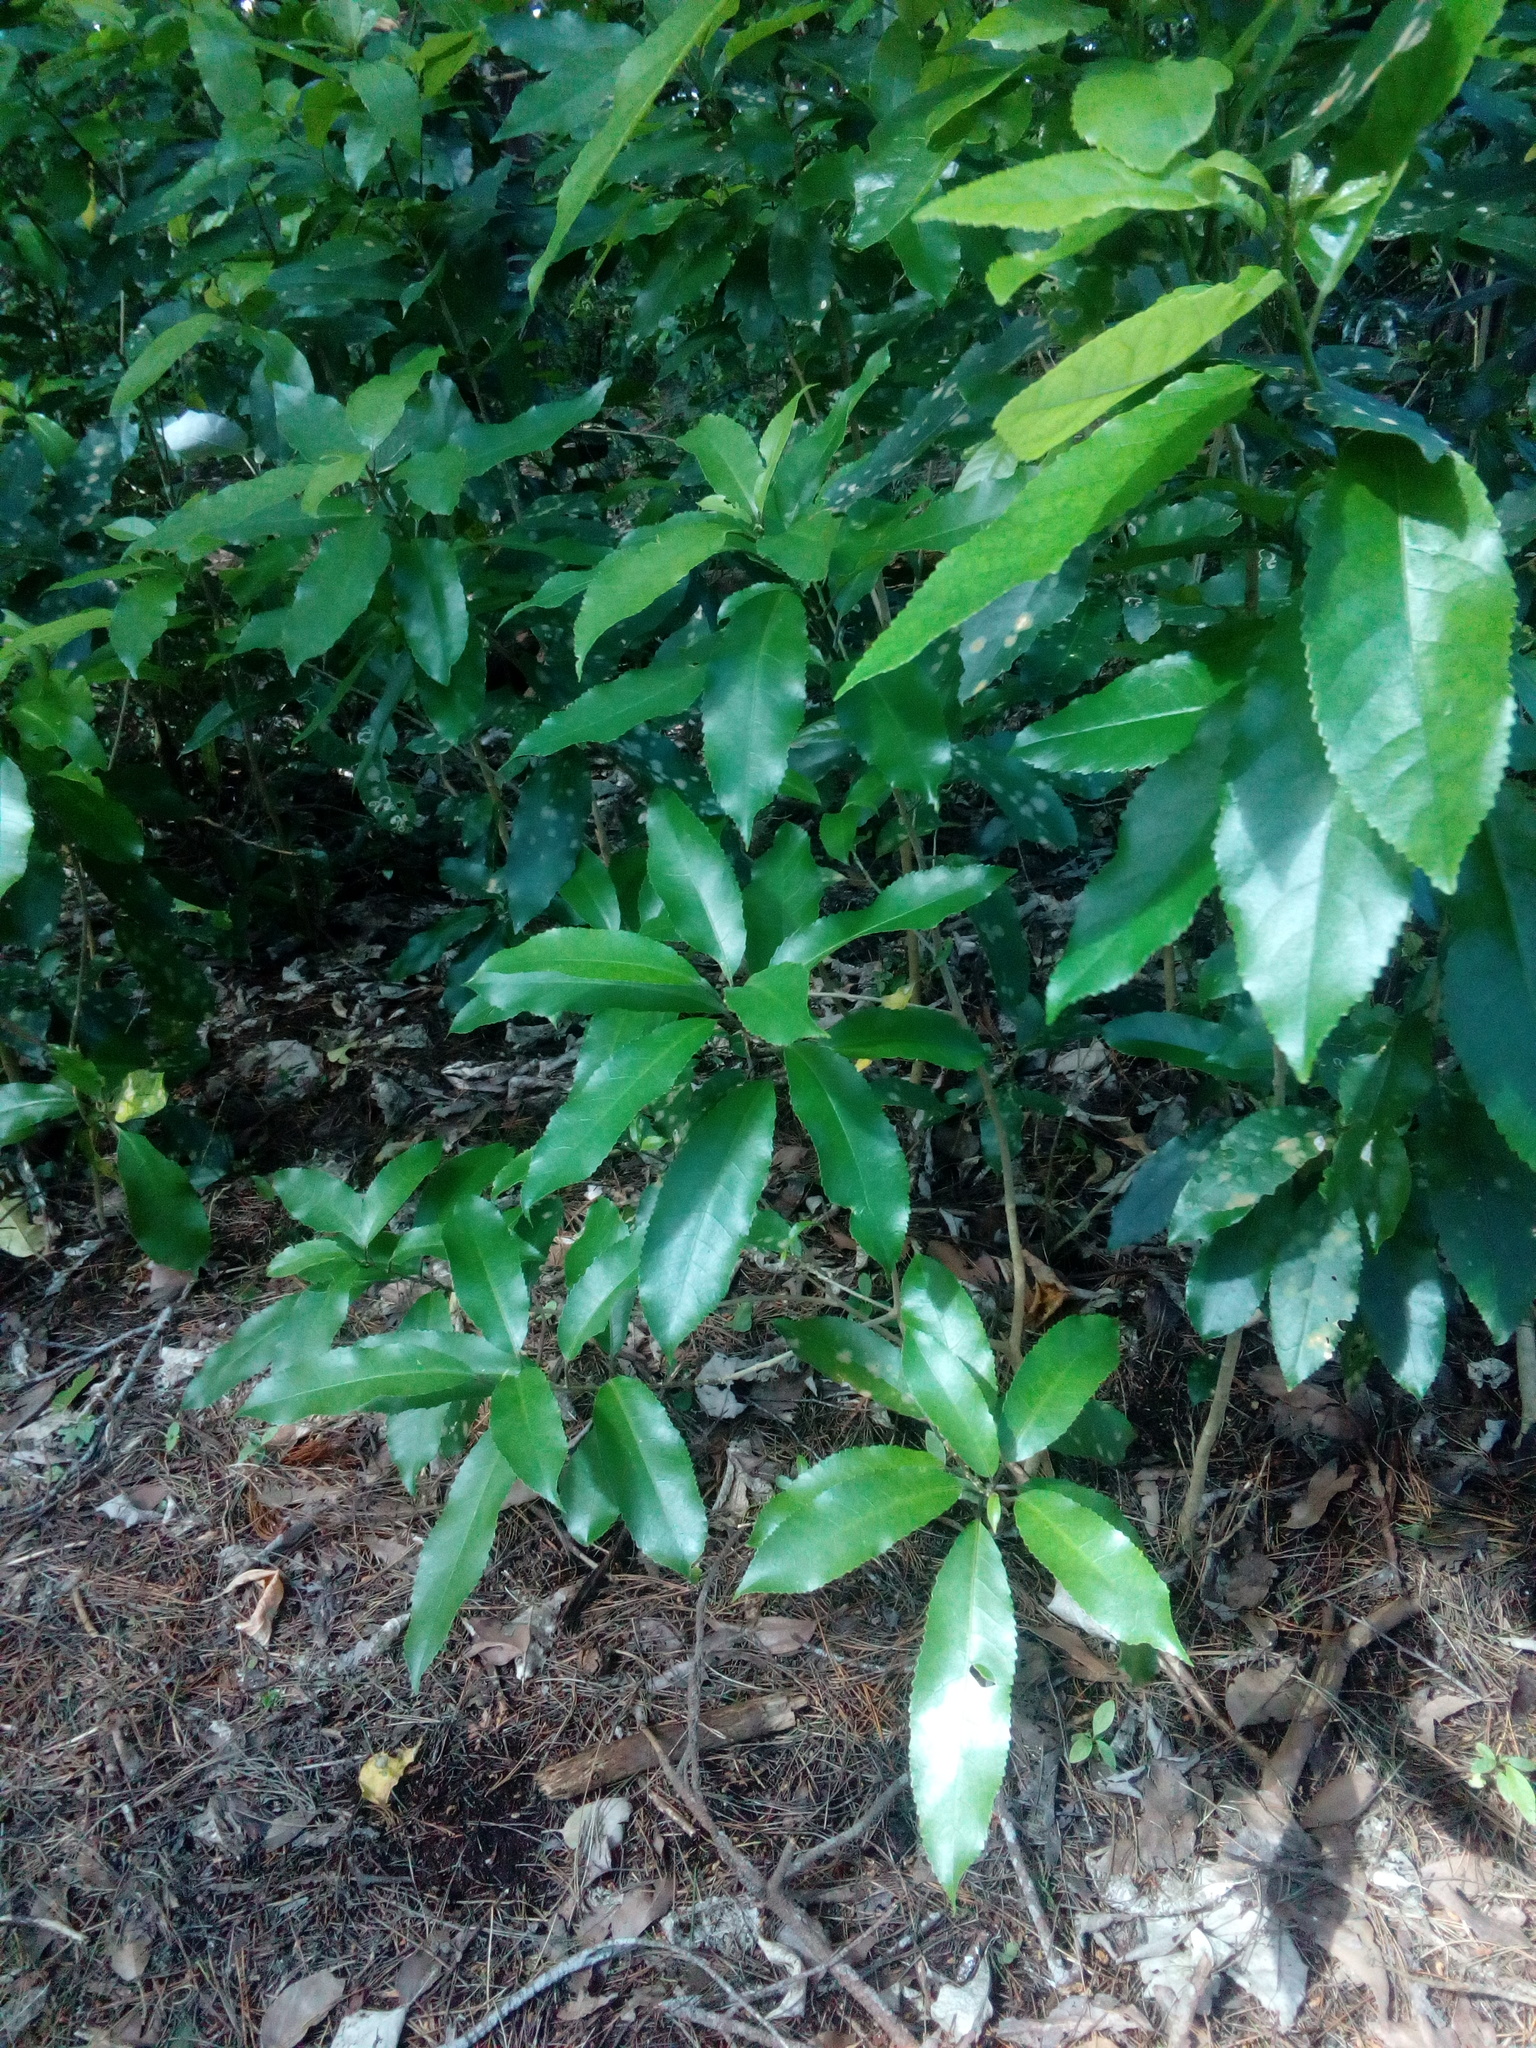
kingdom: Plantae
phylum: Tracheophyta
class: Magnoliopsida
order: Malpighiales
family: Violaceae
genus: Melicytus
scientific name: Melicytus ramiflorus
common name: Mahoe
